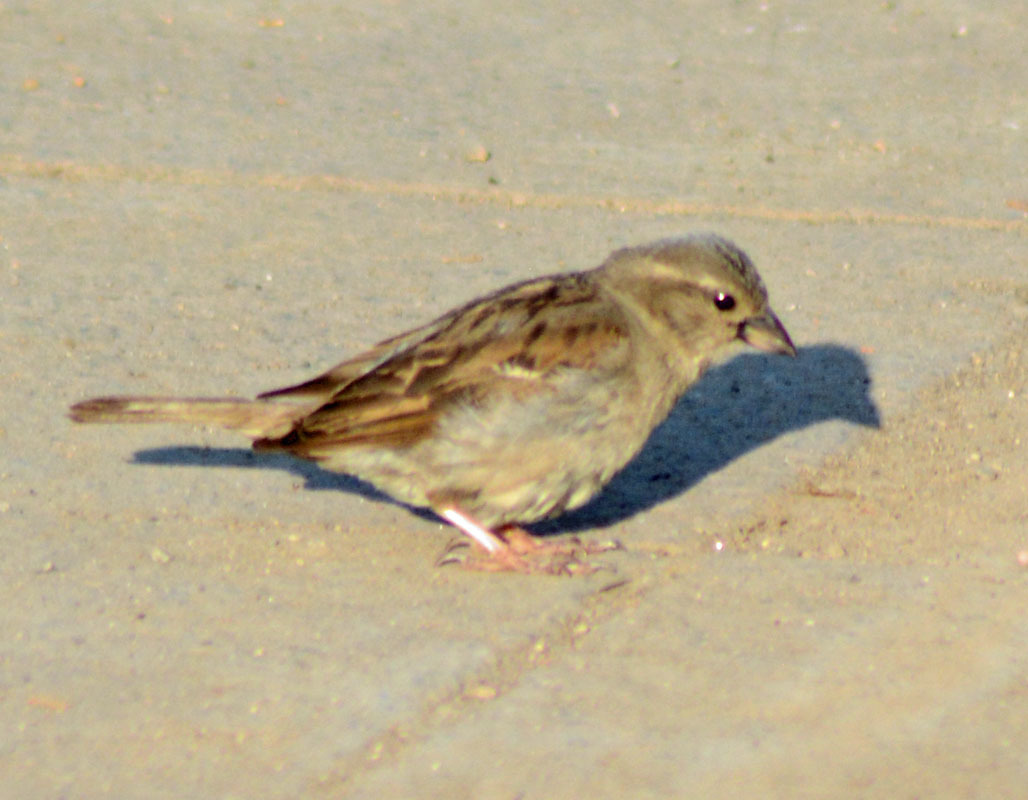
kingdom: Animalia
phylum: Chordata
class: Aves
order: Passeriformes
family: Passeridae
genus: Passer
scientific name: Passer domesticus
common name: House sparrow
